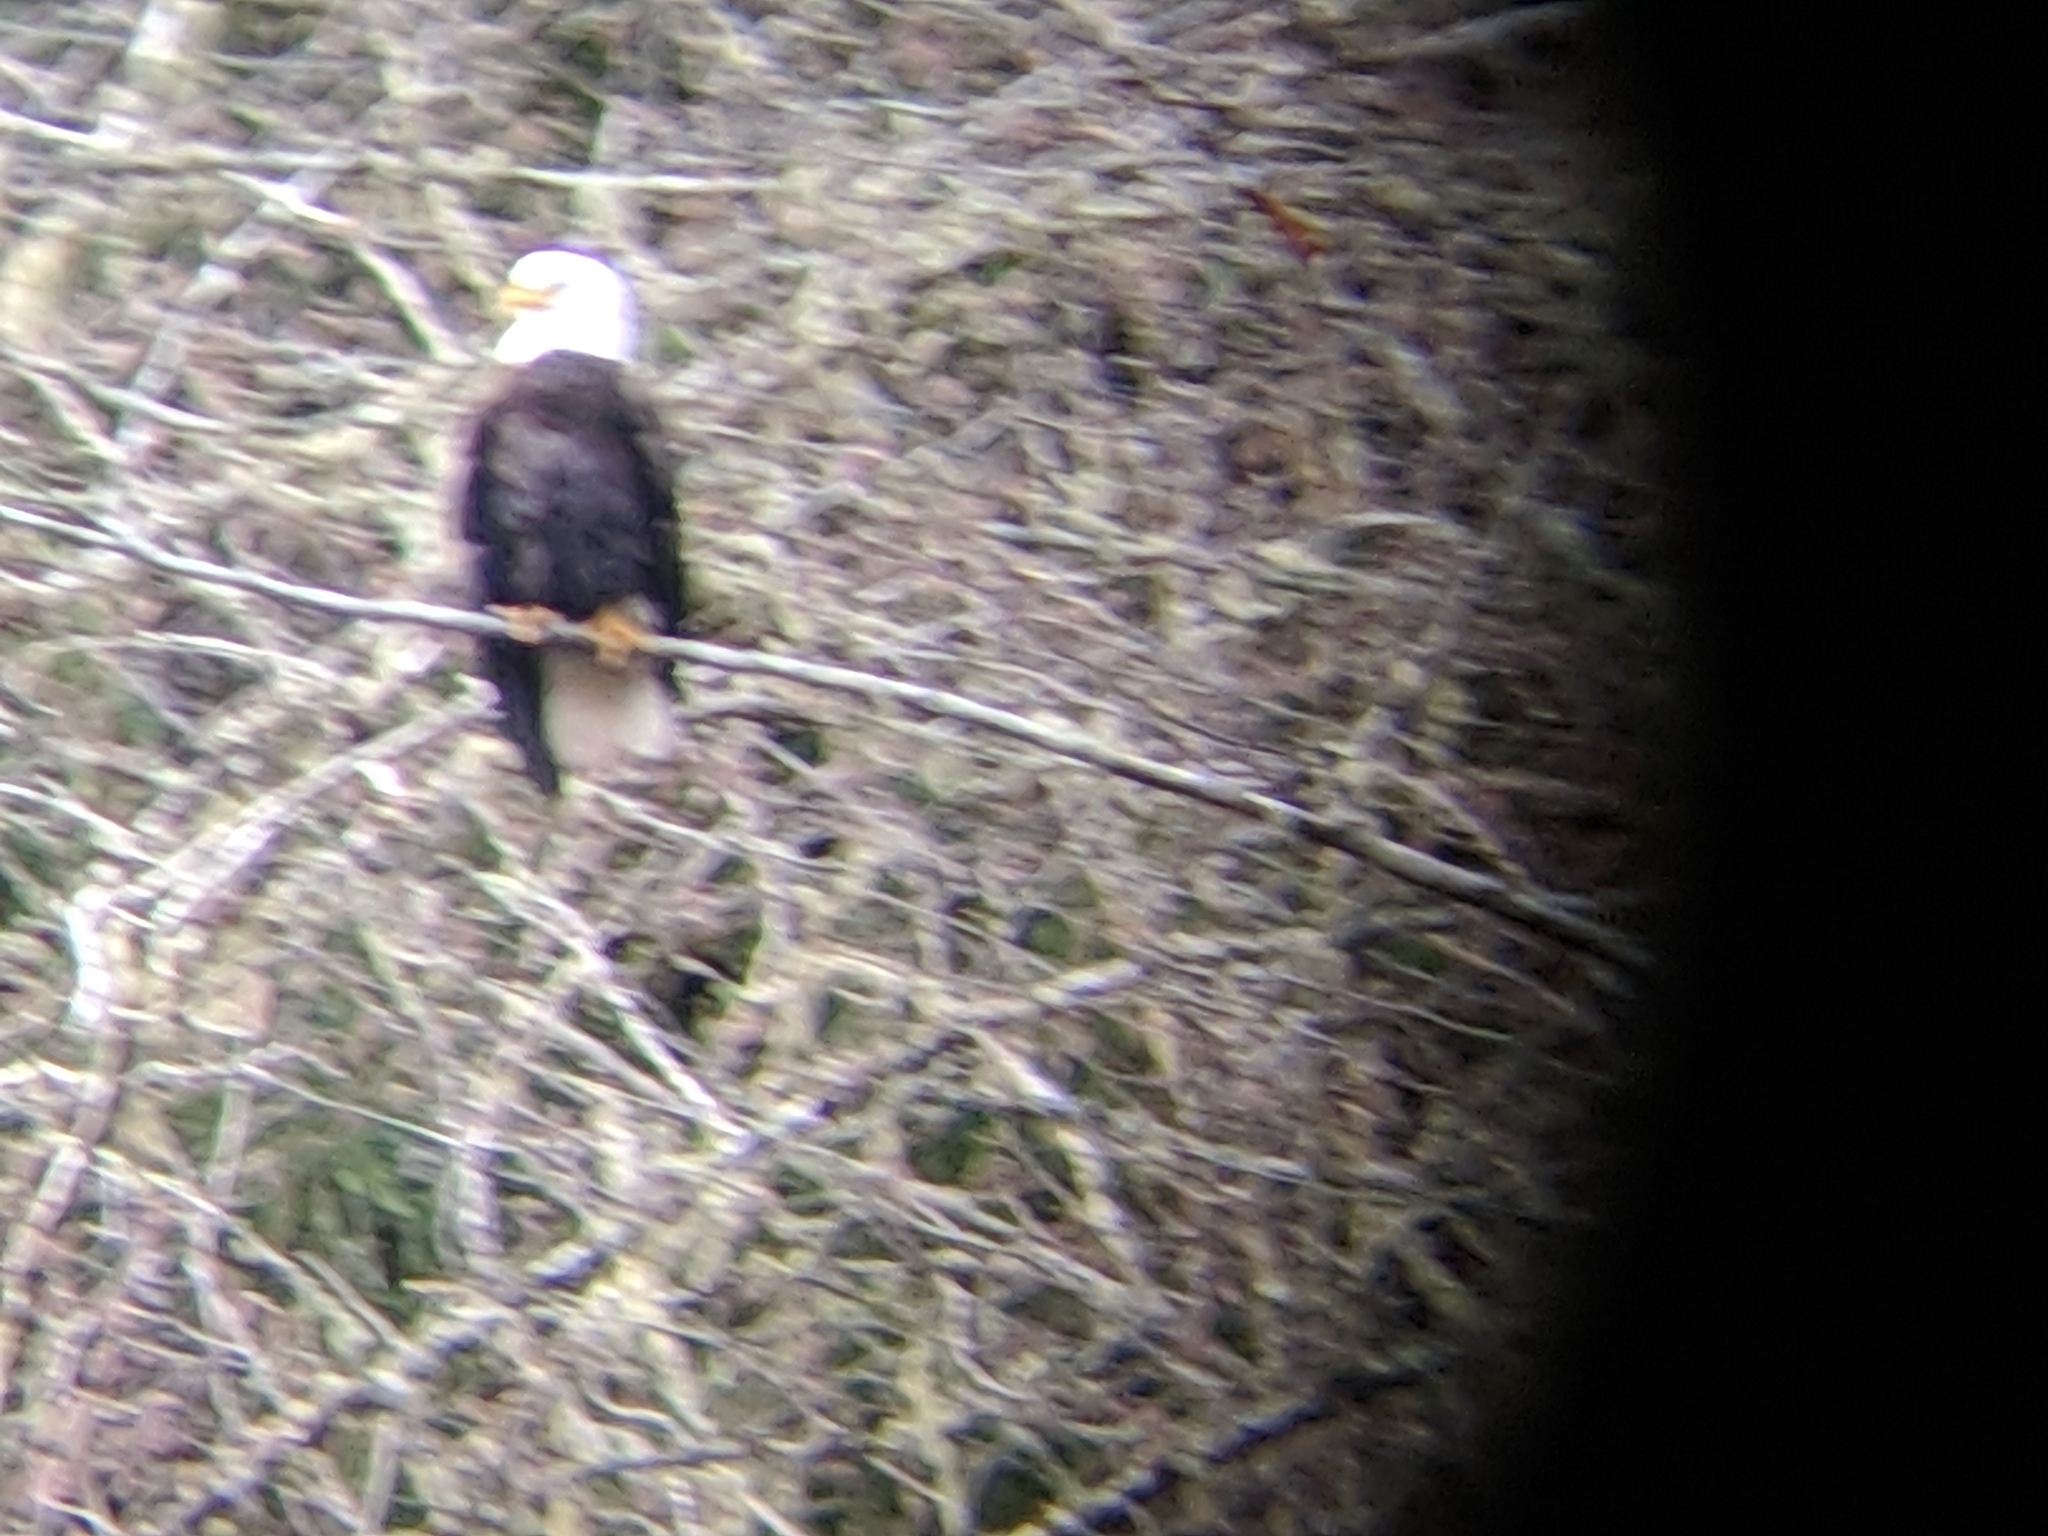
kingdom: Animalia
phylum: Chordata
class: Aves
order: Accipitriformes
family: Accipitridae
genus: Haliaeetus
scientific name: Haliaeetus leucocephalus
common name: Bald eagle
